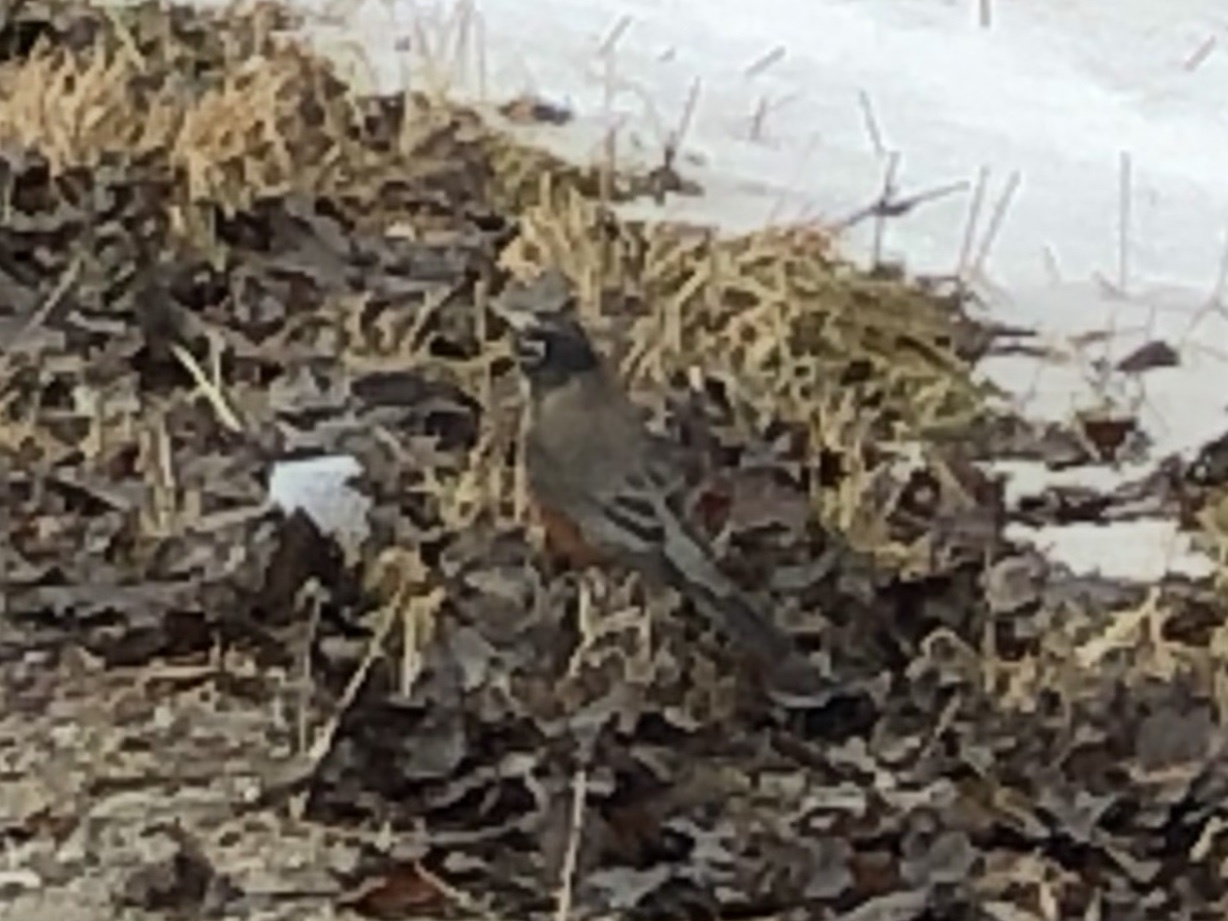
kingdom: Animalia
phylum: Chordata
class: Aves
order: Passeriformes
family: Turdidae
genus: Turdus
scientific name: Turdus migratorius
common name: American robin
